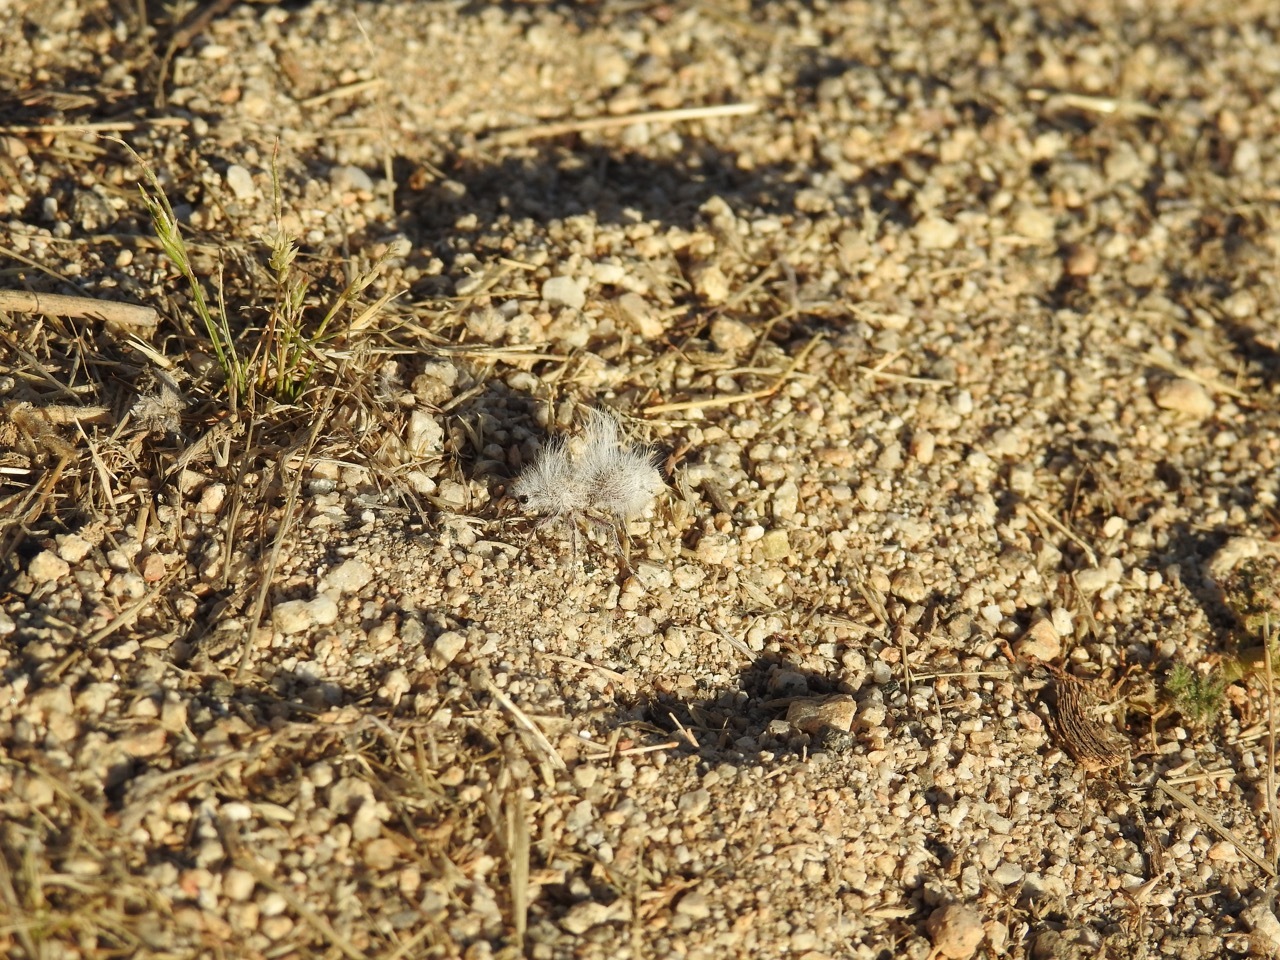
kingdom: Animalia
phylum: Arthropoda
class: Insecta
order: Hymenoptera
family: Mutillidae
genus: Dasymutilla
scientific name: Dasymutilla gloriosa
